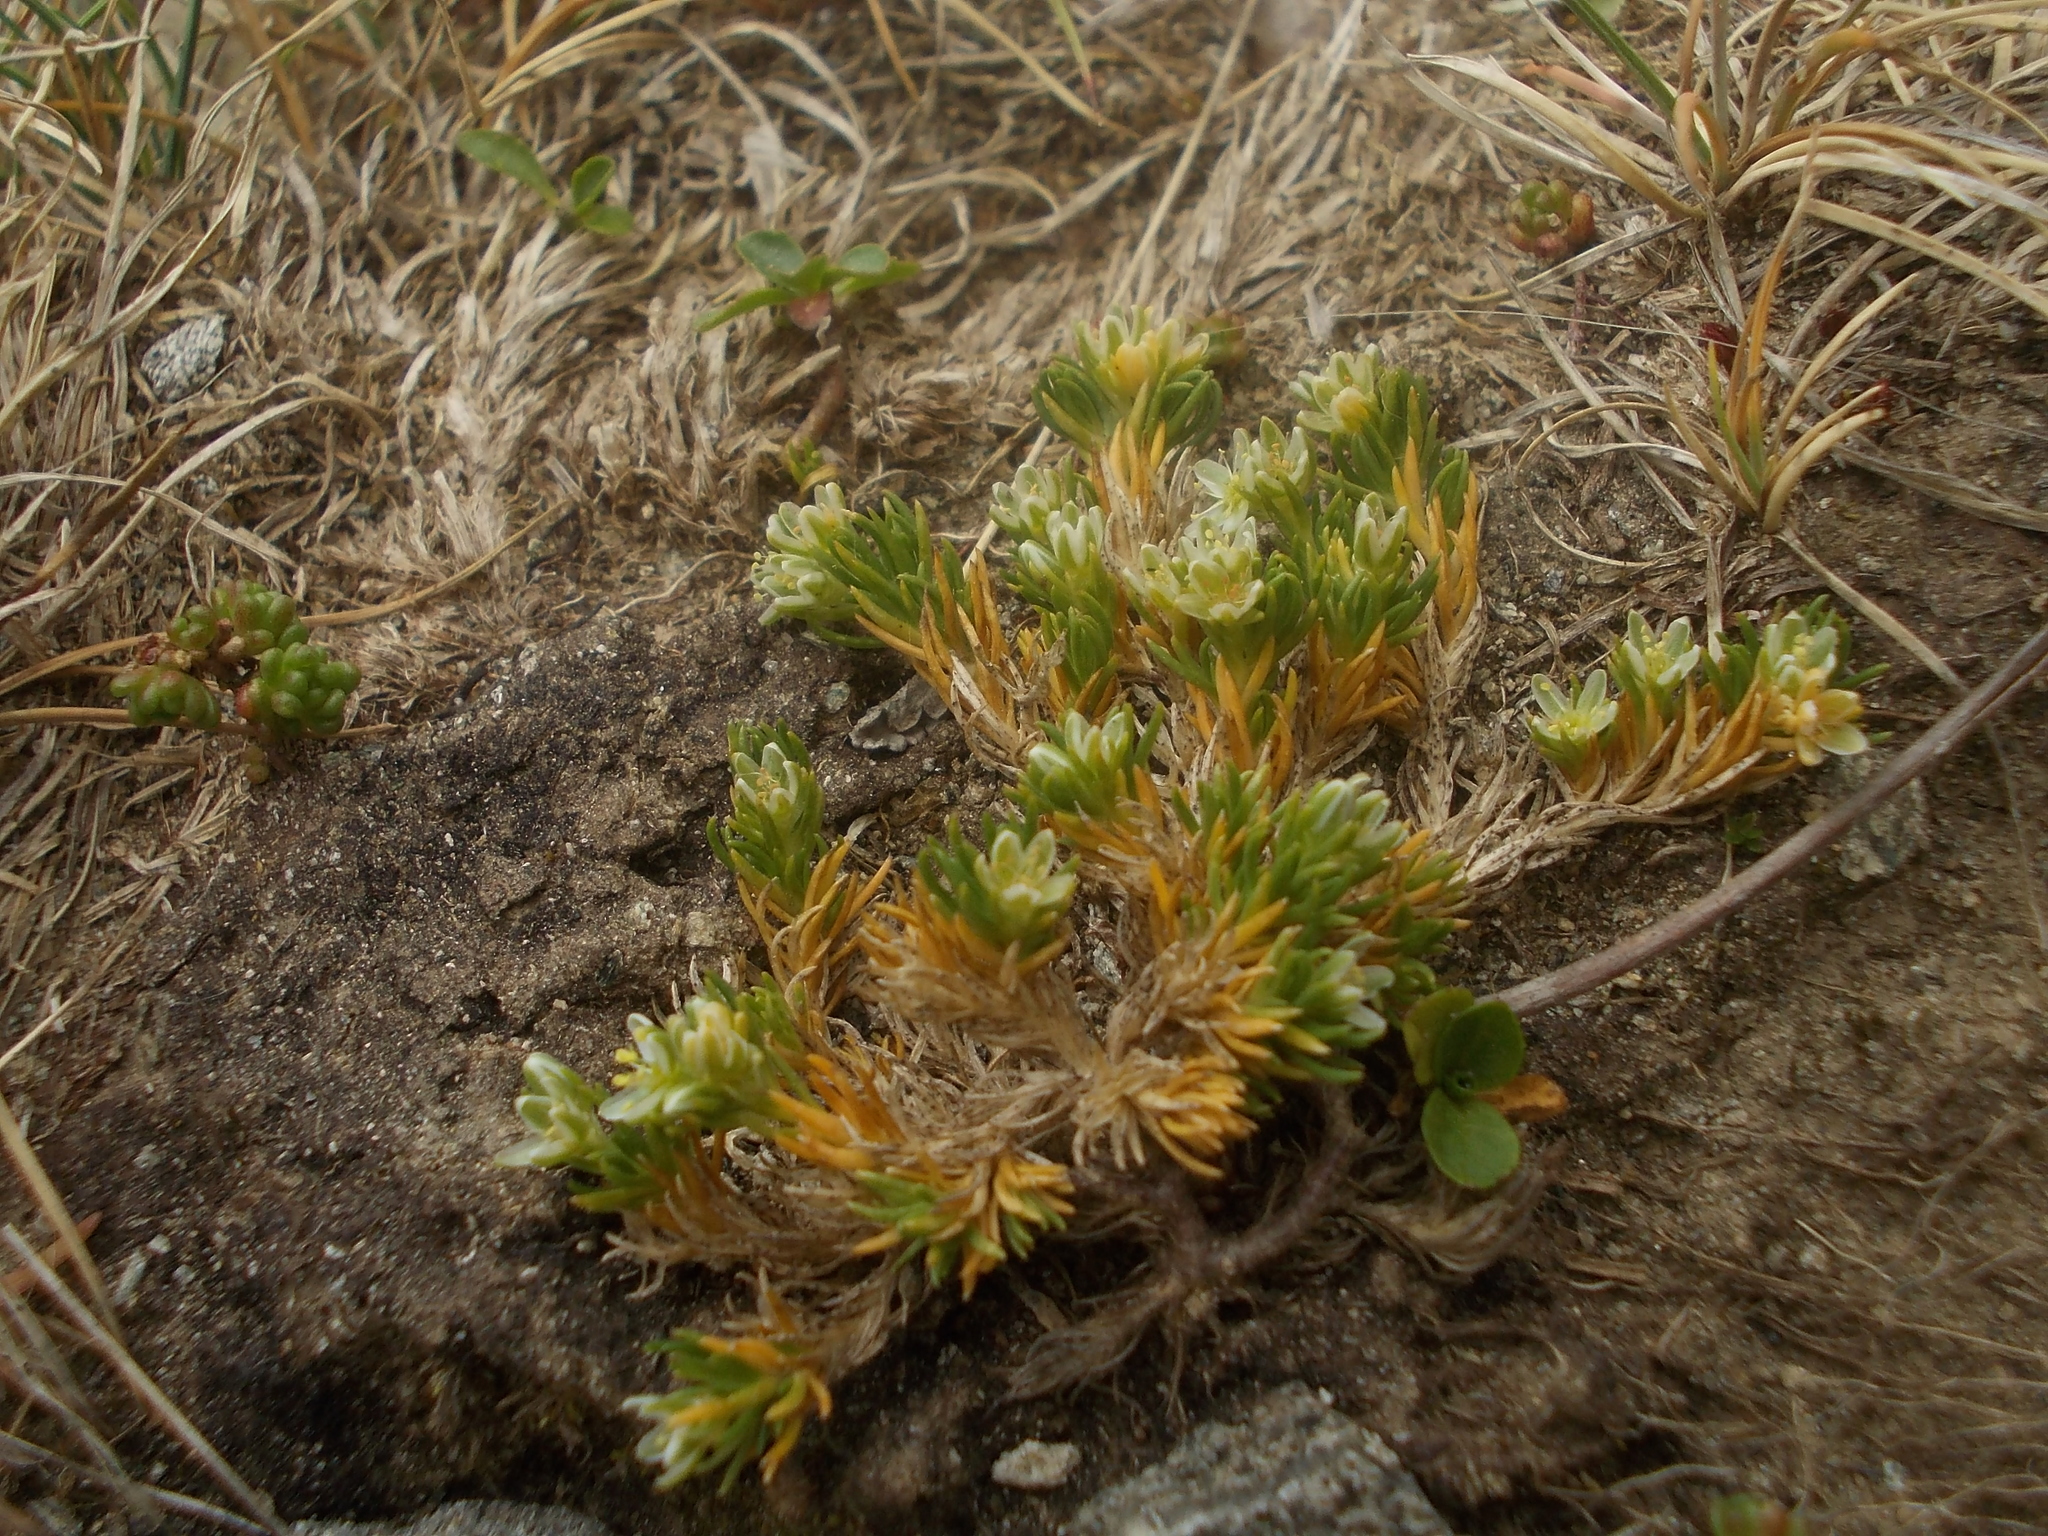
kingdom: Plantae
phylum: Tracheophyta
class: Magnoliopsida
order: Caryophyllales
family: Caryophyllaceae
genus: Scleranthus
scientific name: Scleranthus perennis
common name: Perennial knawel
